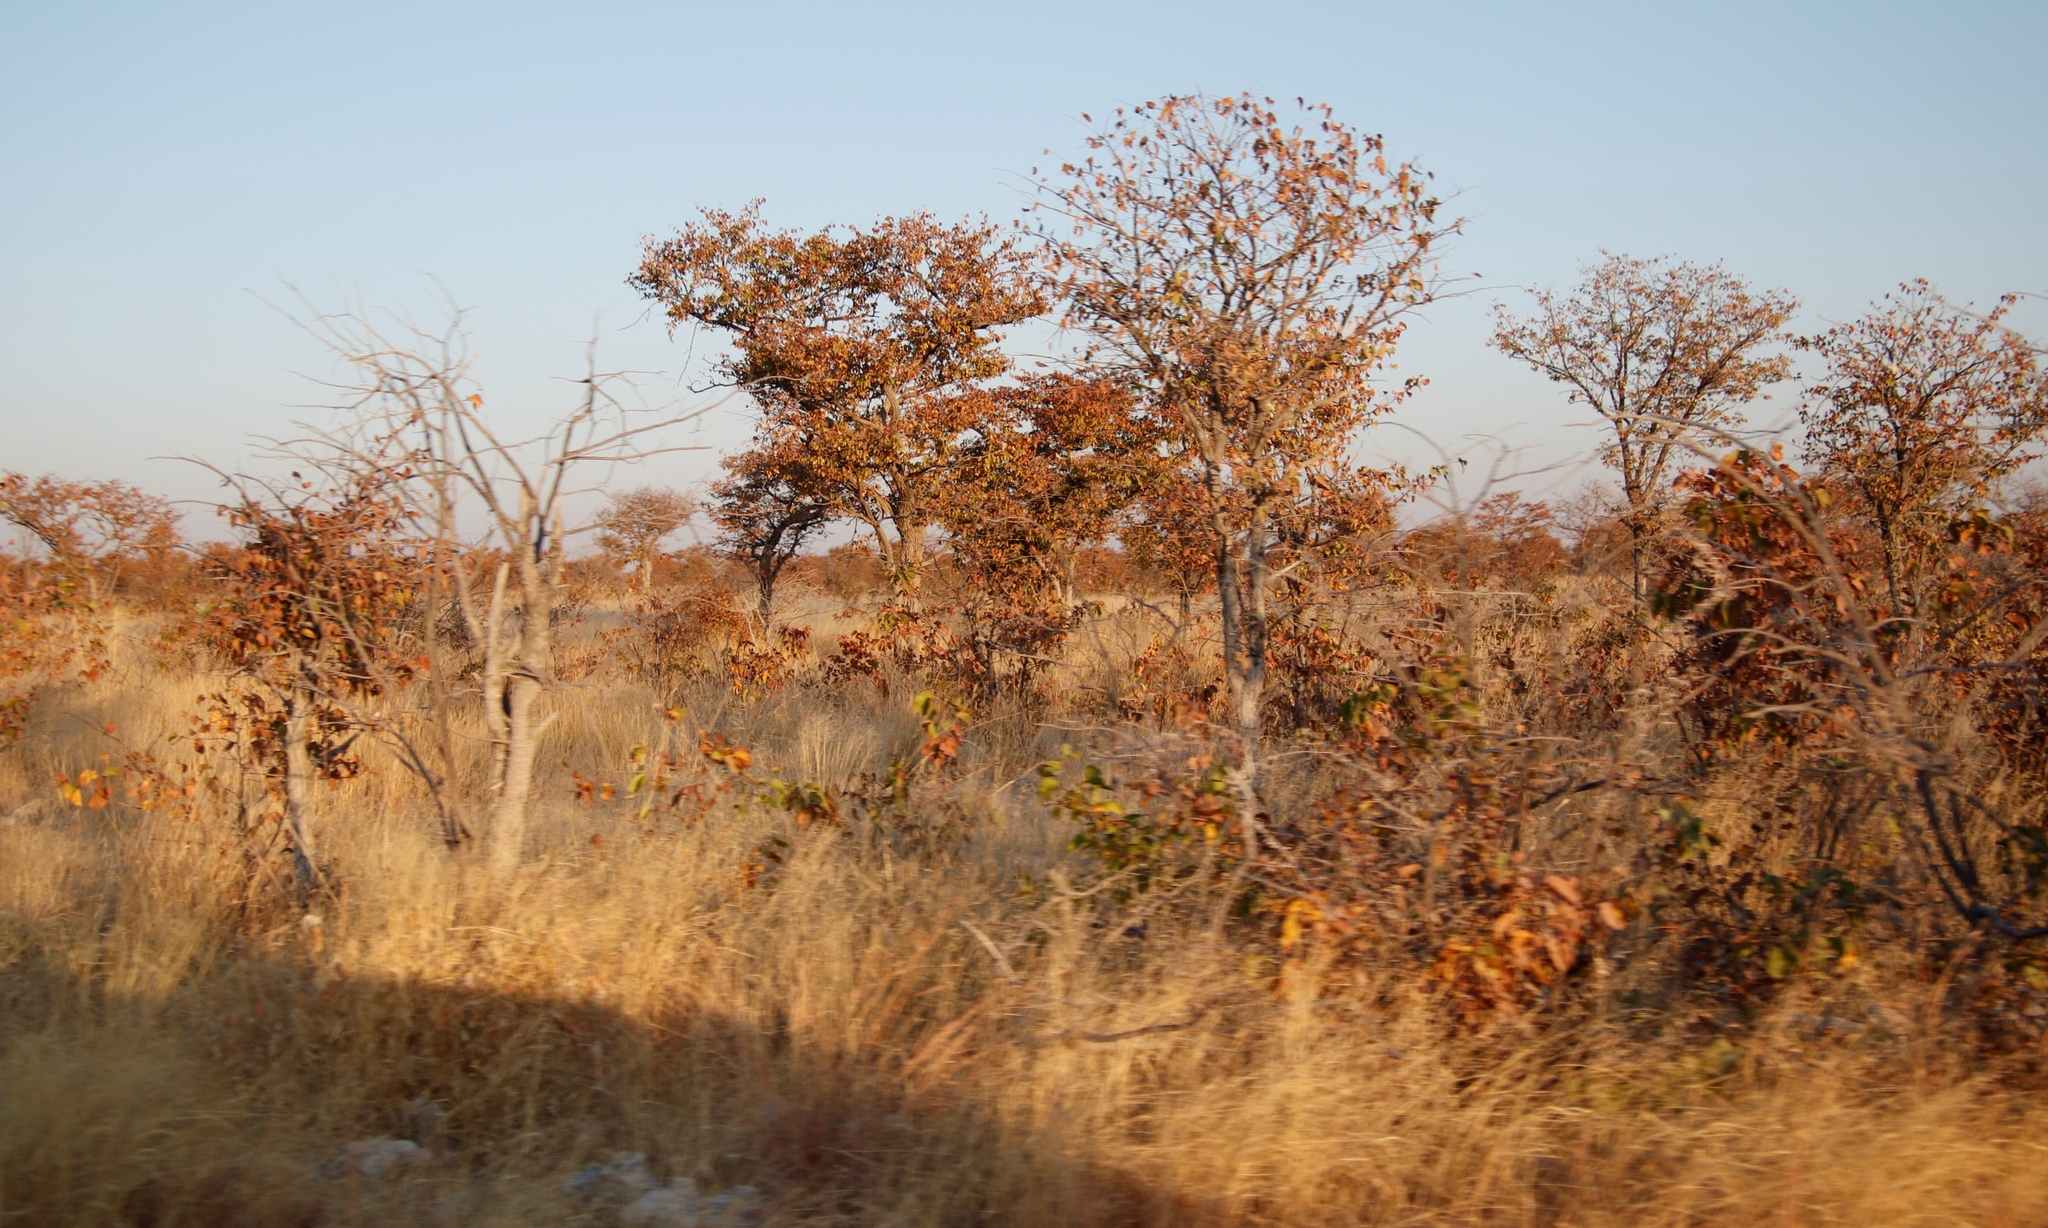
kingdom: Plantae
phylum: Tracheophyta
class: Magnoliopsida
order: Fabales
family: Fabaceae
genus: Colophospermum
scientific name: Colophospermum mopane
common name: Mopane
